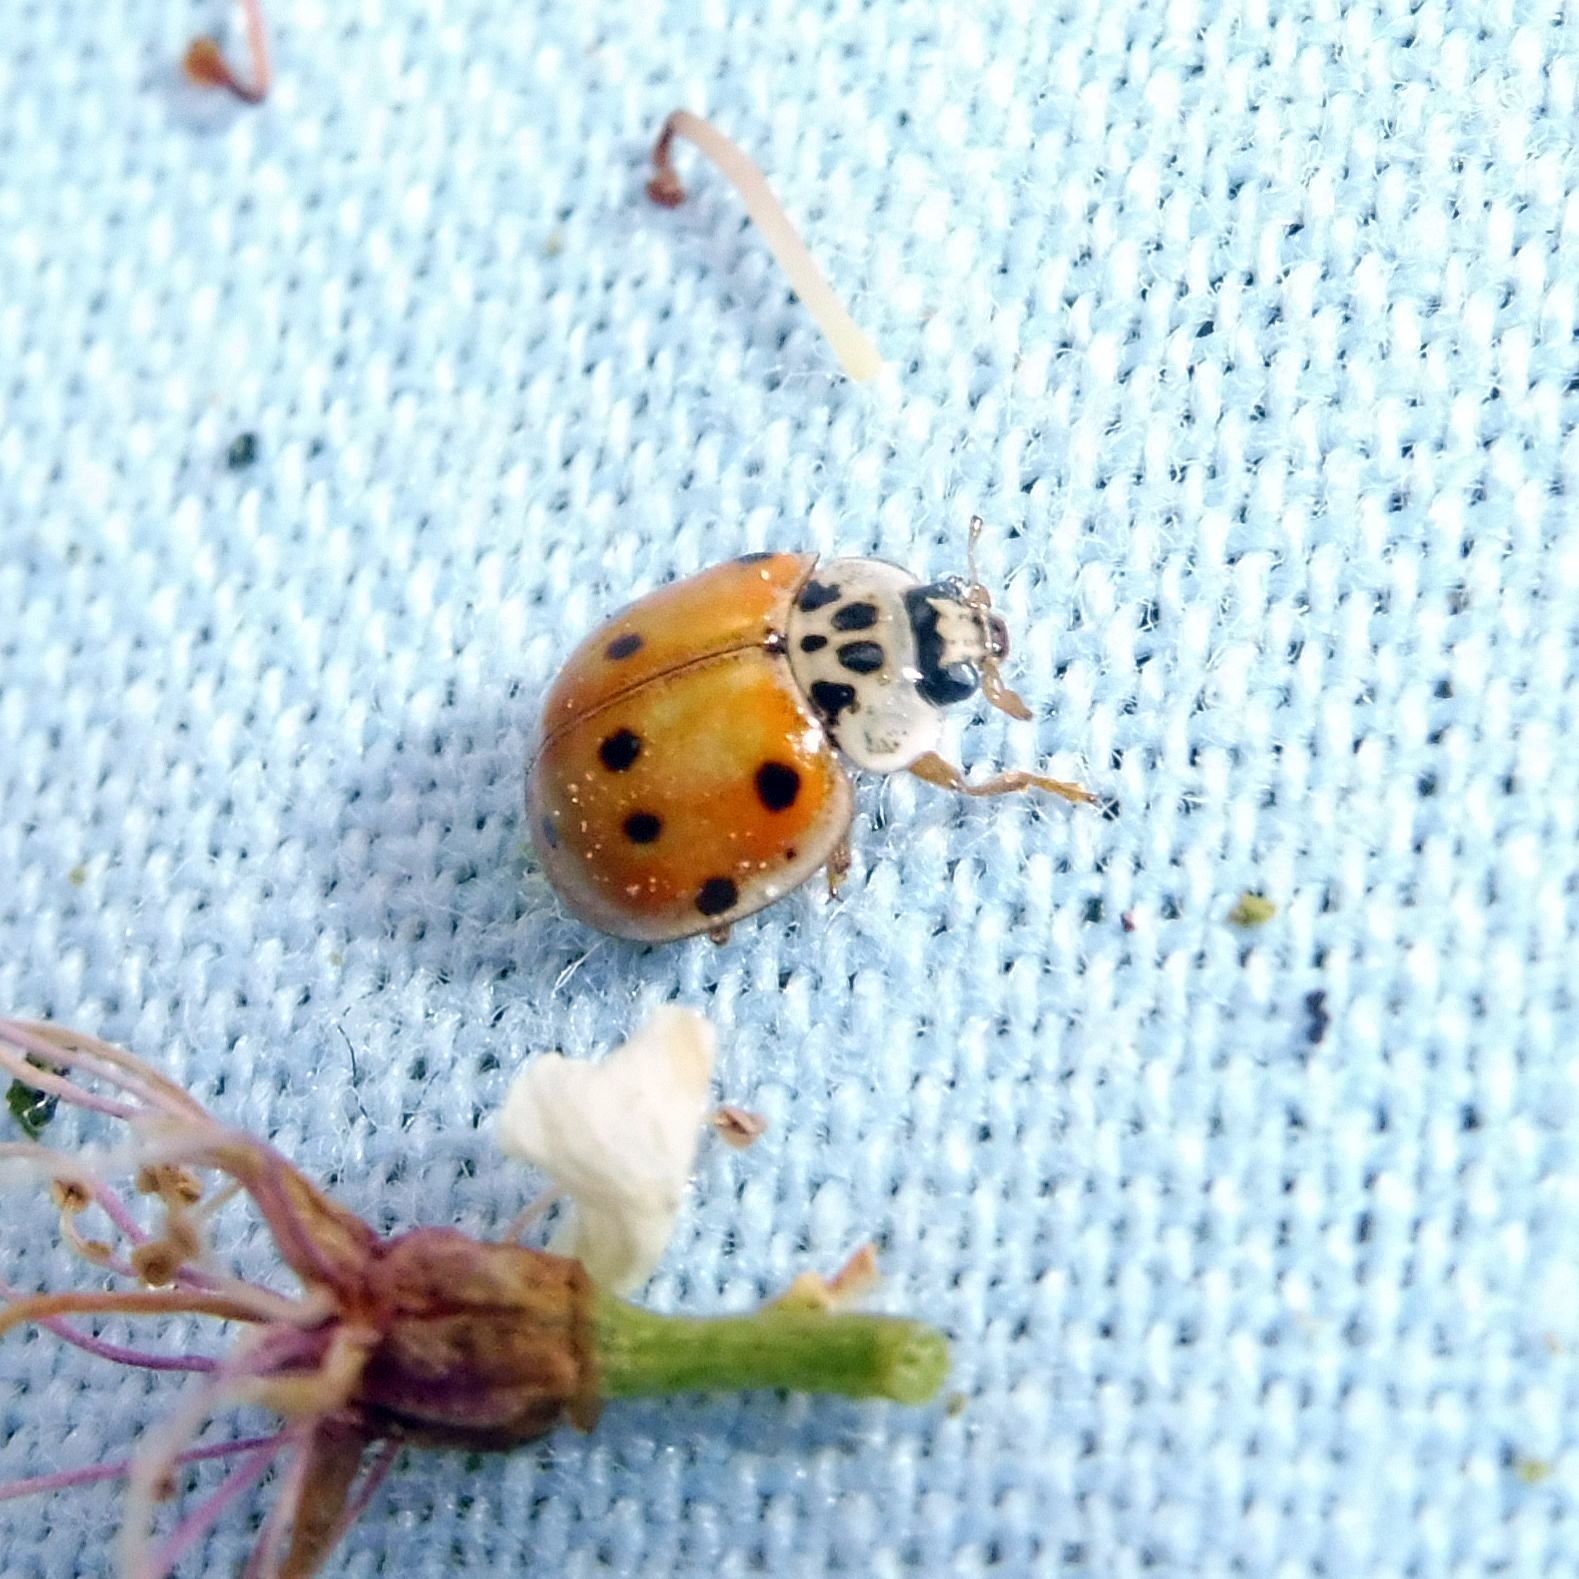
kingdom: Animalia
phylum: Arthropoda
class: Insecta
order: Coleoptera
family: Coccinellidae
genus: Adalia
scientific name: Adalia decempunctata
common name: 10-spot ladybird
